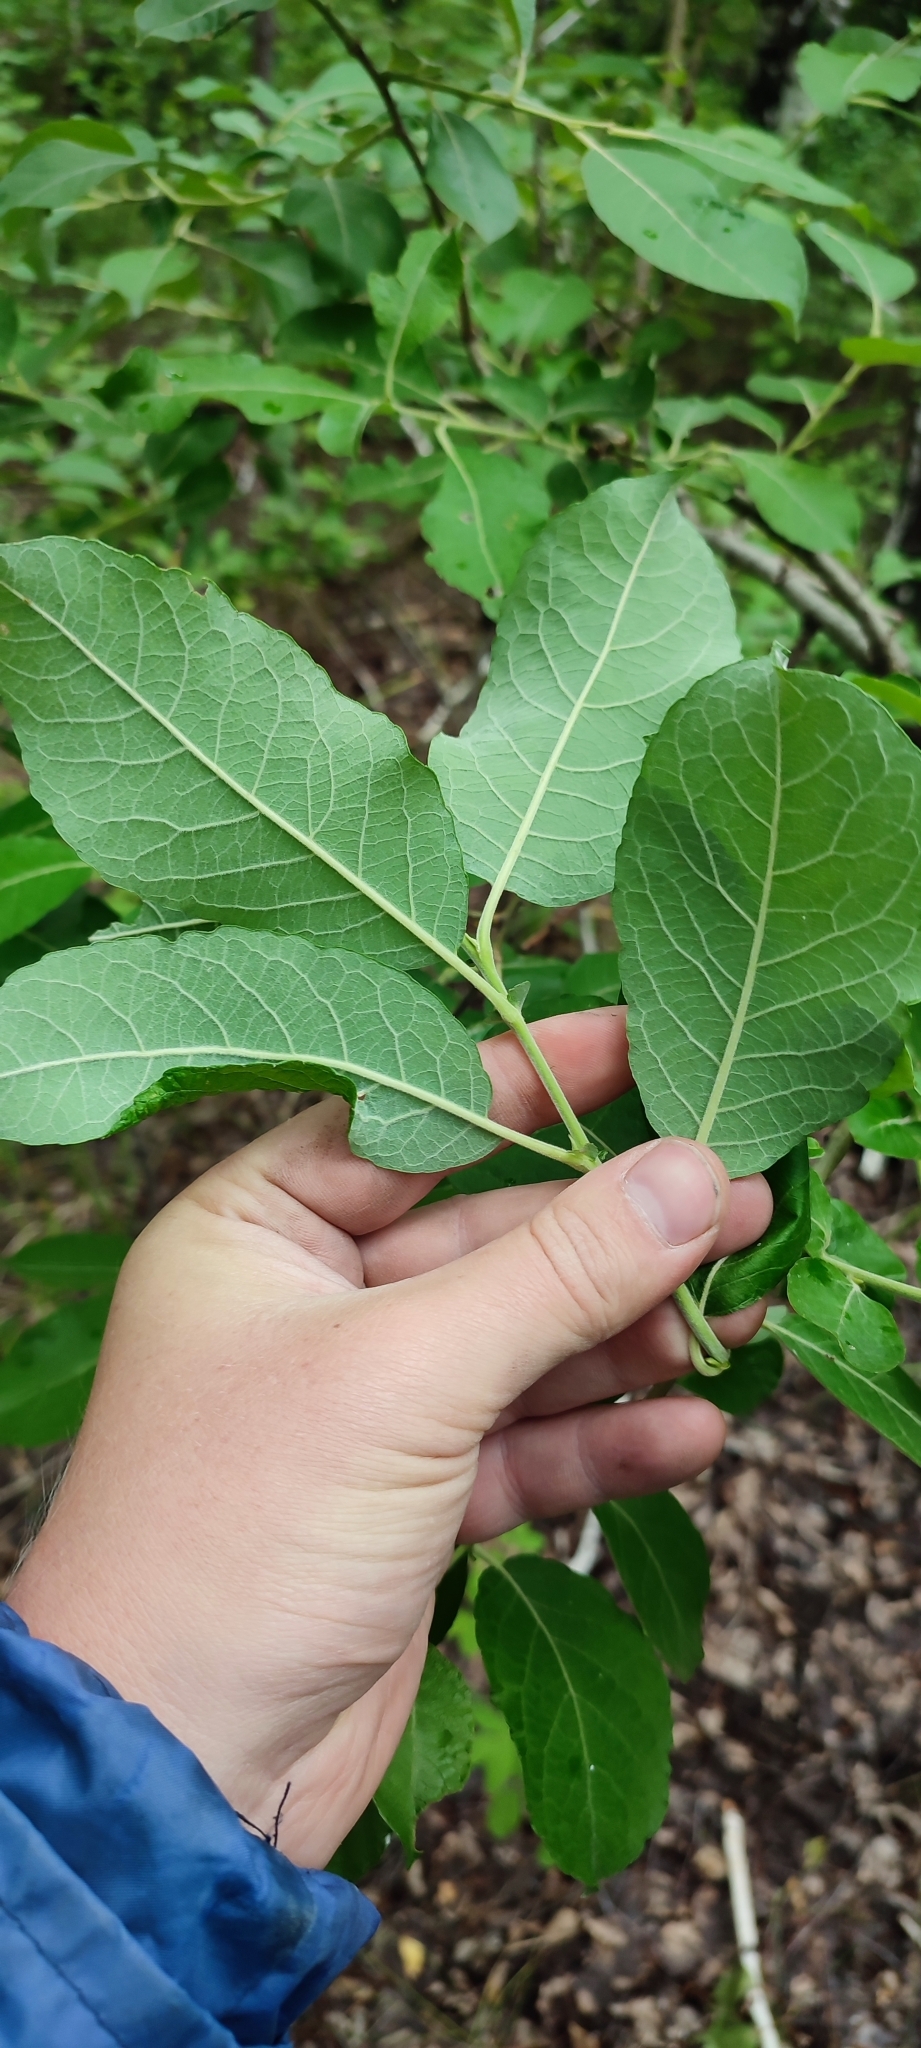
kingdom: Plantae
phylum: Tracheophyta
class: Magnoliopsida
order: Malpighiales
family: Salicaceae
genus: Salix
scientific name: Salix caprea
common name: Goat willow
